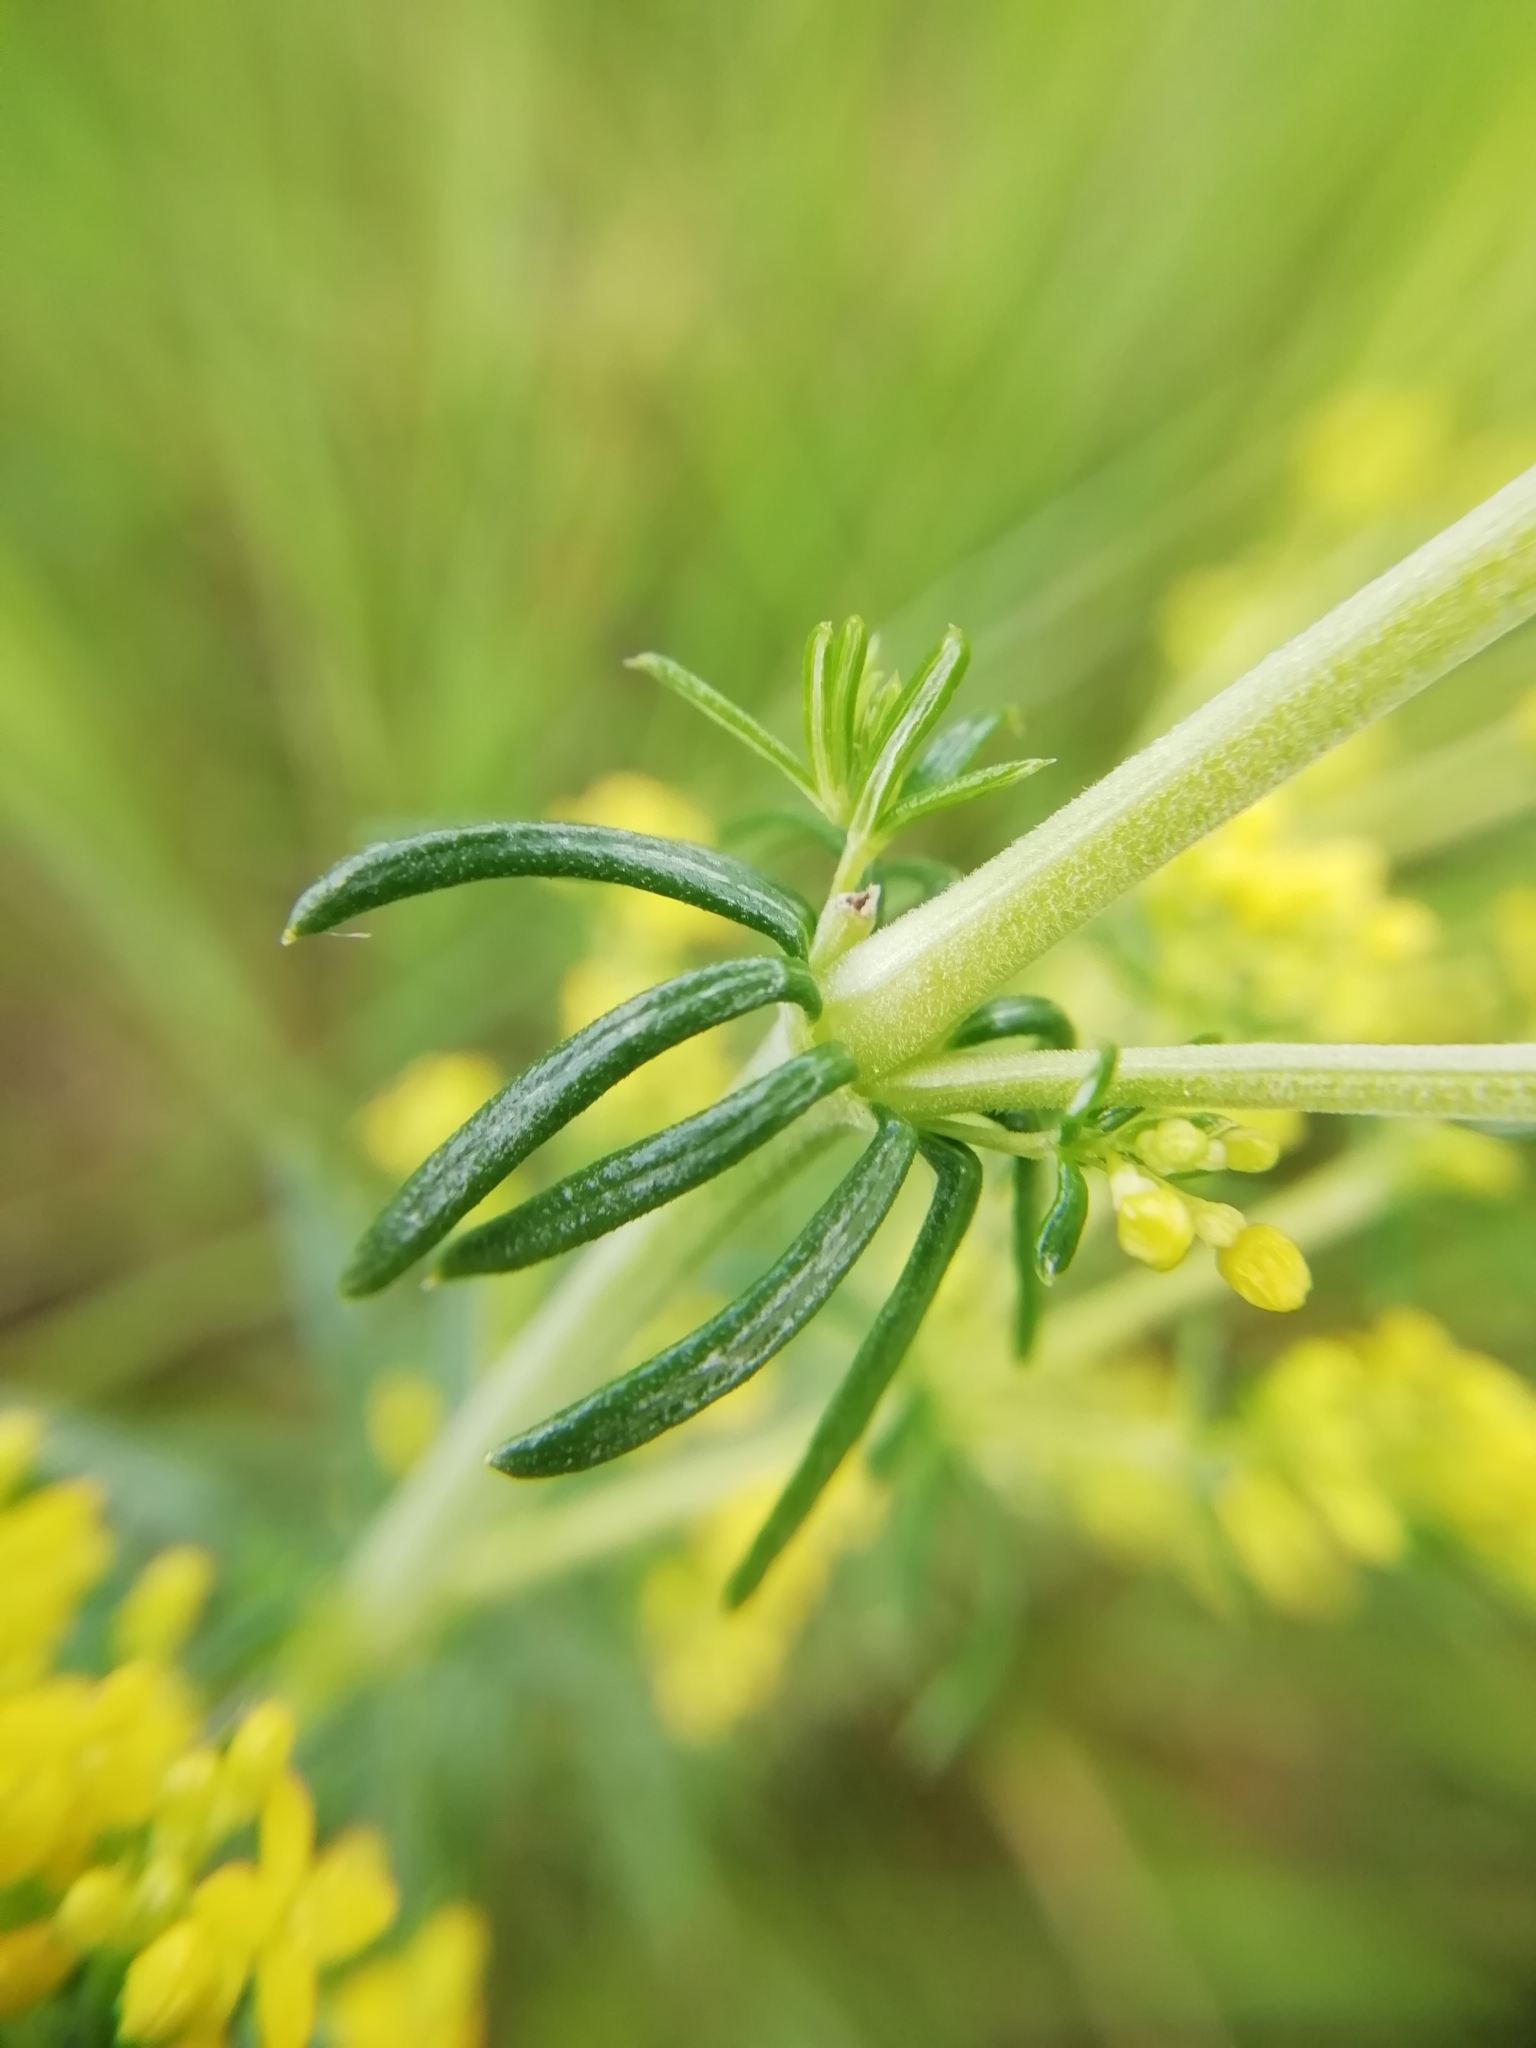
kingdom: Plantae
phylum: Tracheophyta
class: Magnoliopsida
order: Gentianales
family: Rubiaceae
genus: Galium
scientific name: Galium verum
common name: Lady's bedstraw
